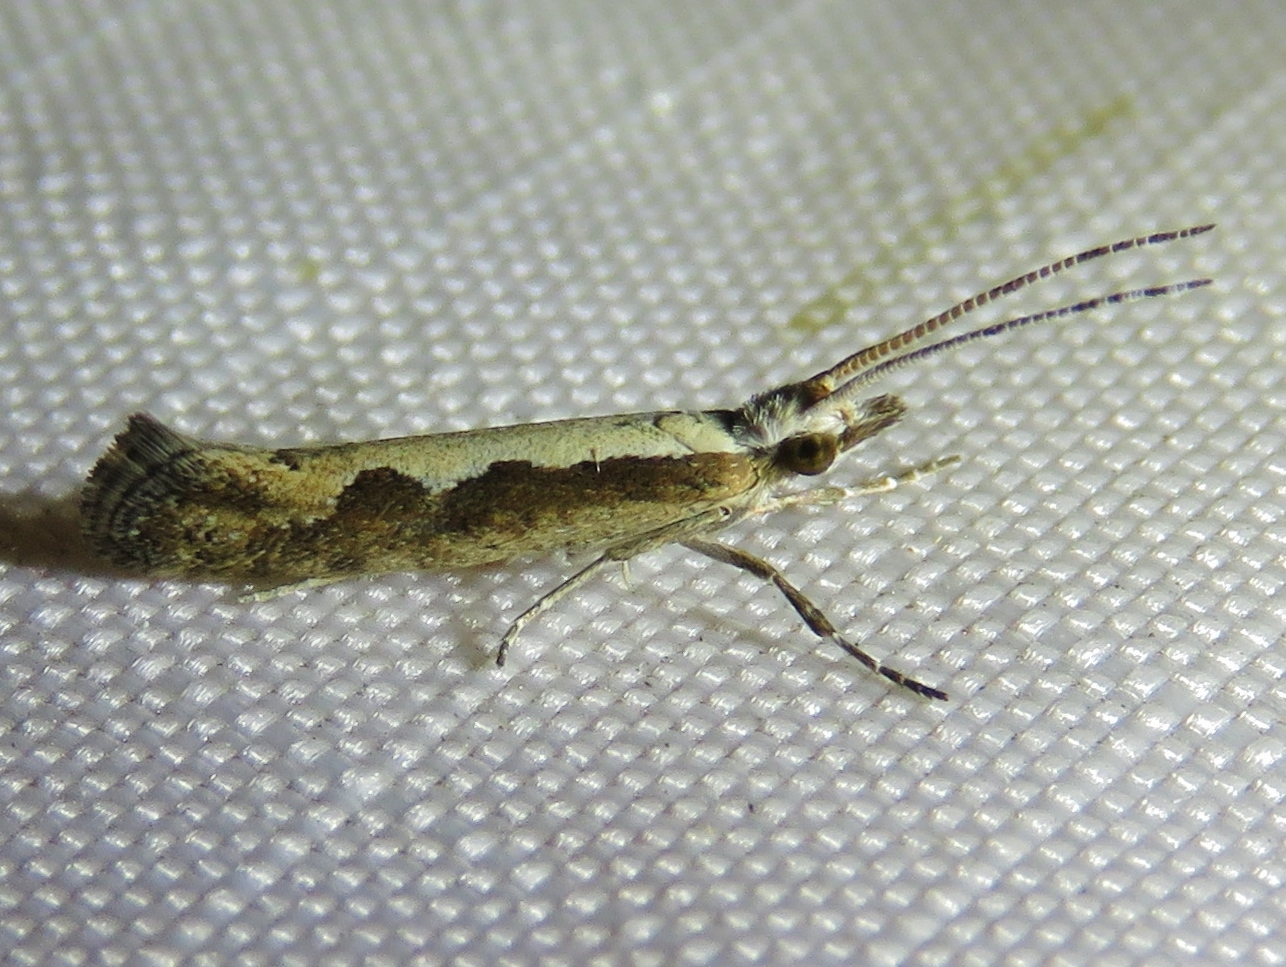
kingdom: Animalia
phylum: Arthropoda
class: Insecta
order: Lepidoptera
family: Plutellidae
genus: Plutella
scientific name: Plutella xylostella
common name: Diamond-back moth
